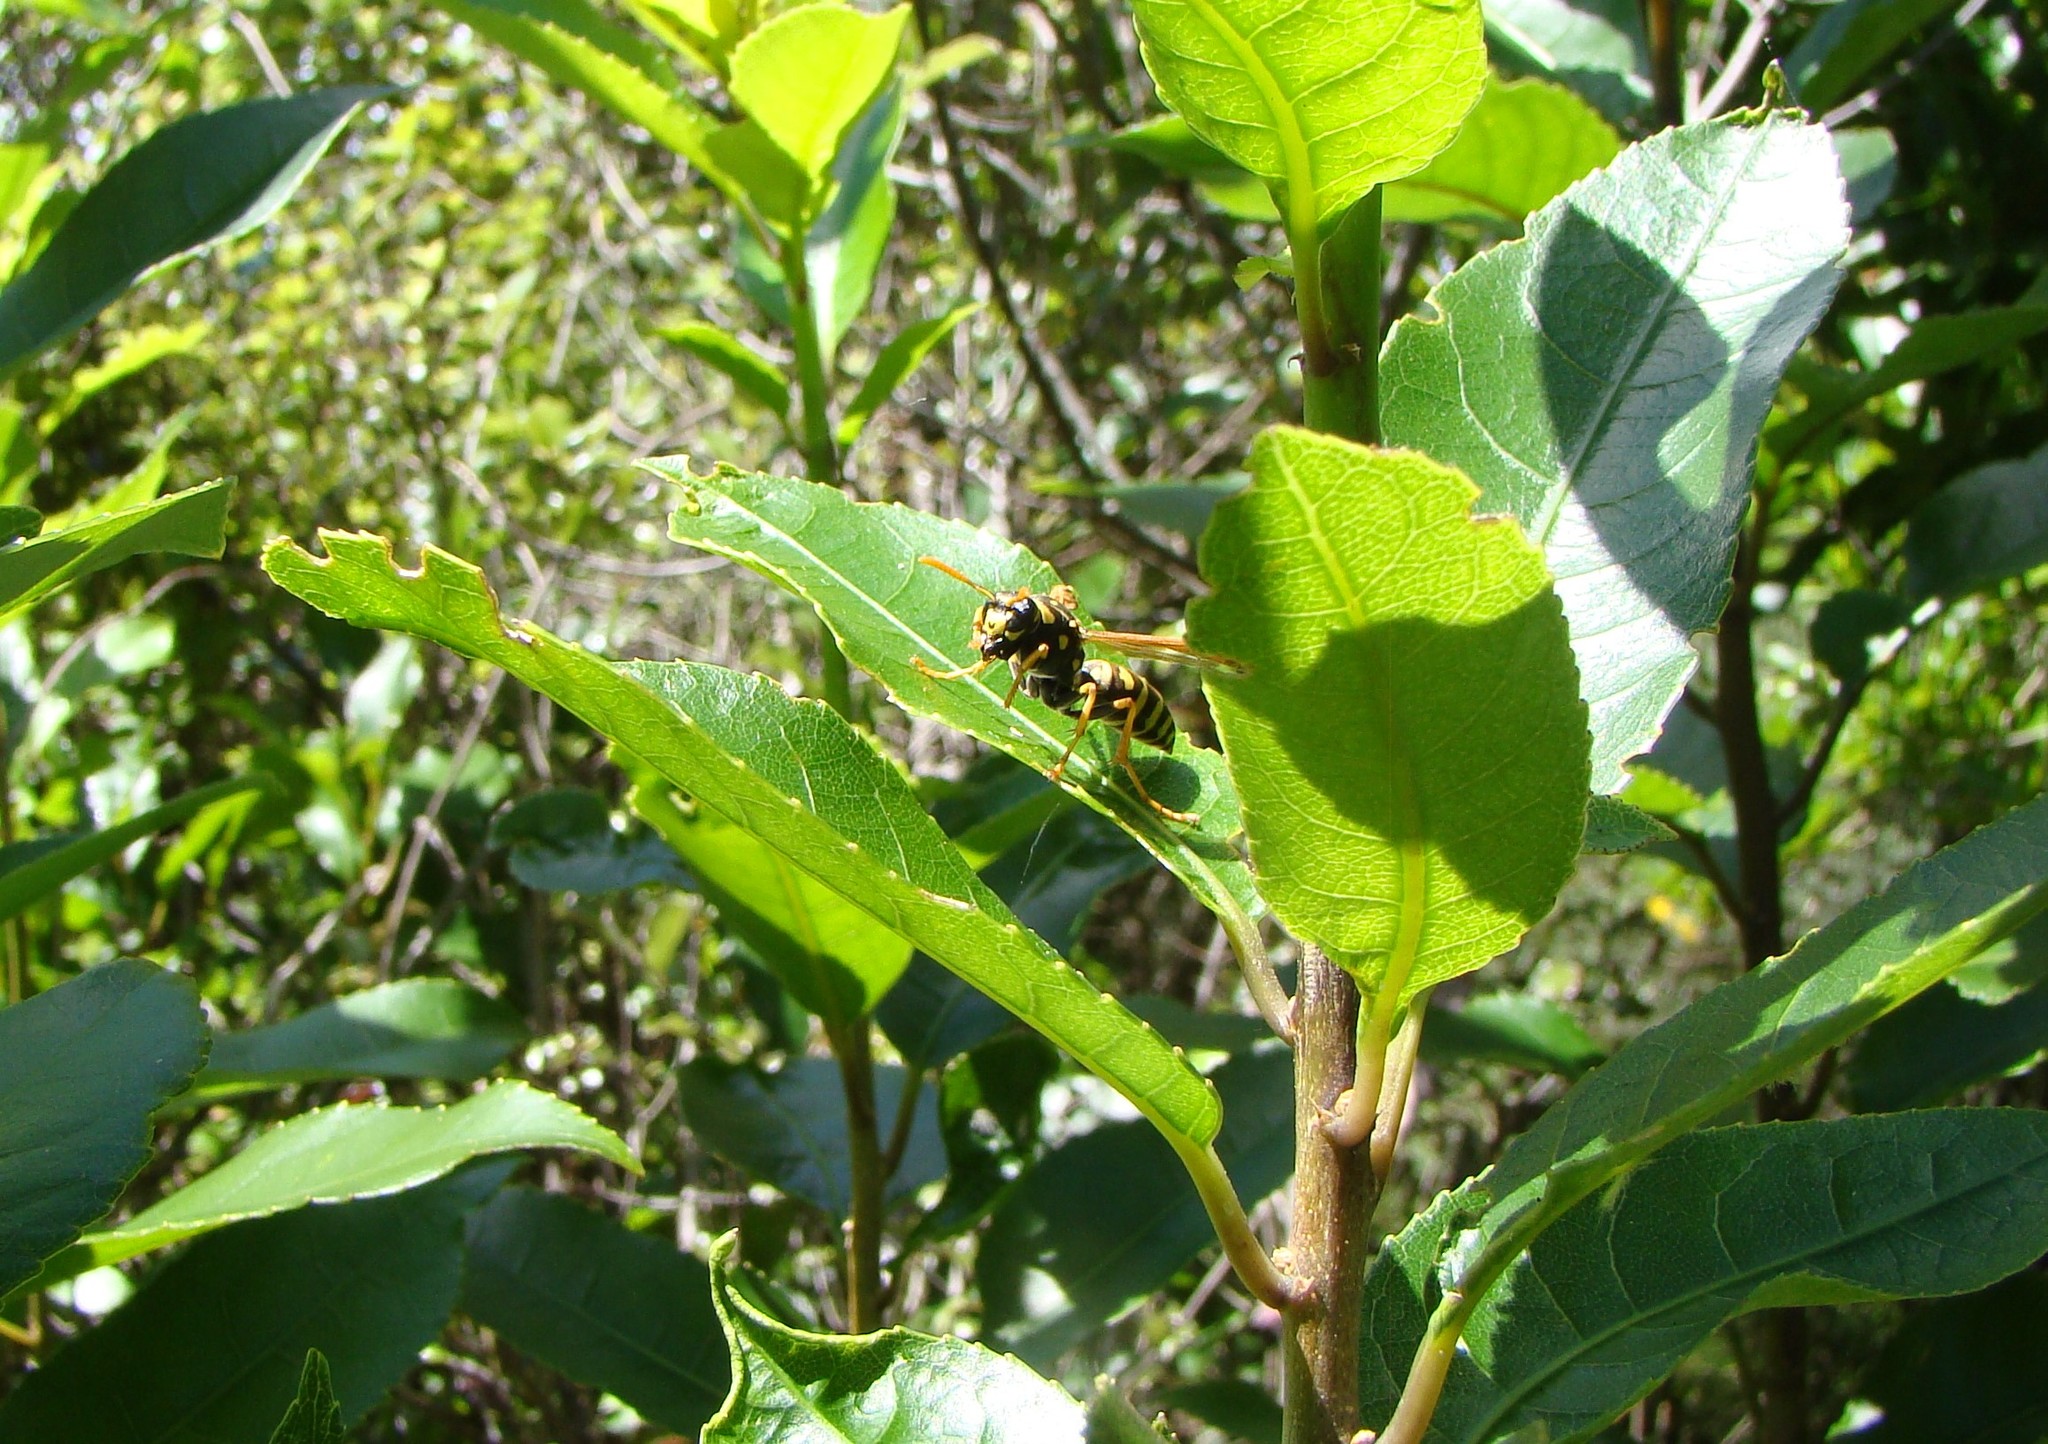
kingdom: Animalia
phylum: Arthropoda
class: Insecta
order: Hymenoptera
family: Eumenidae
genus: Polistes
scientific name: Polistes dominula
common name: Paper wasp
